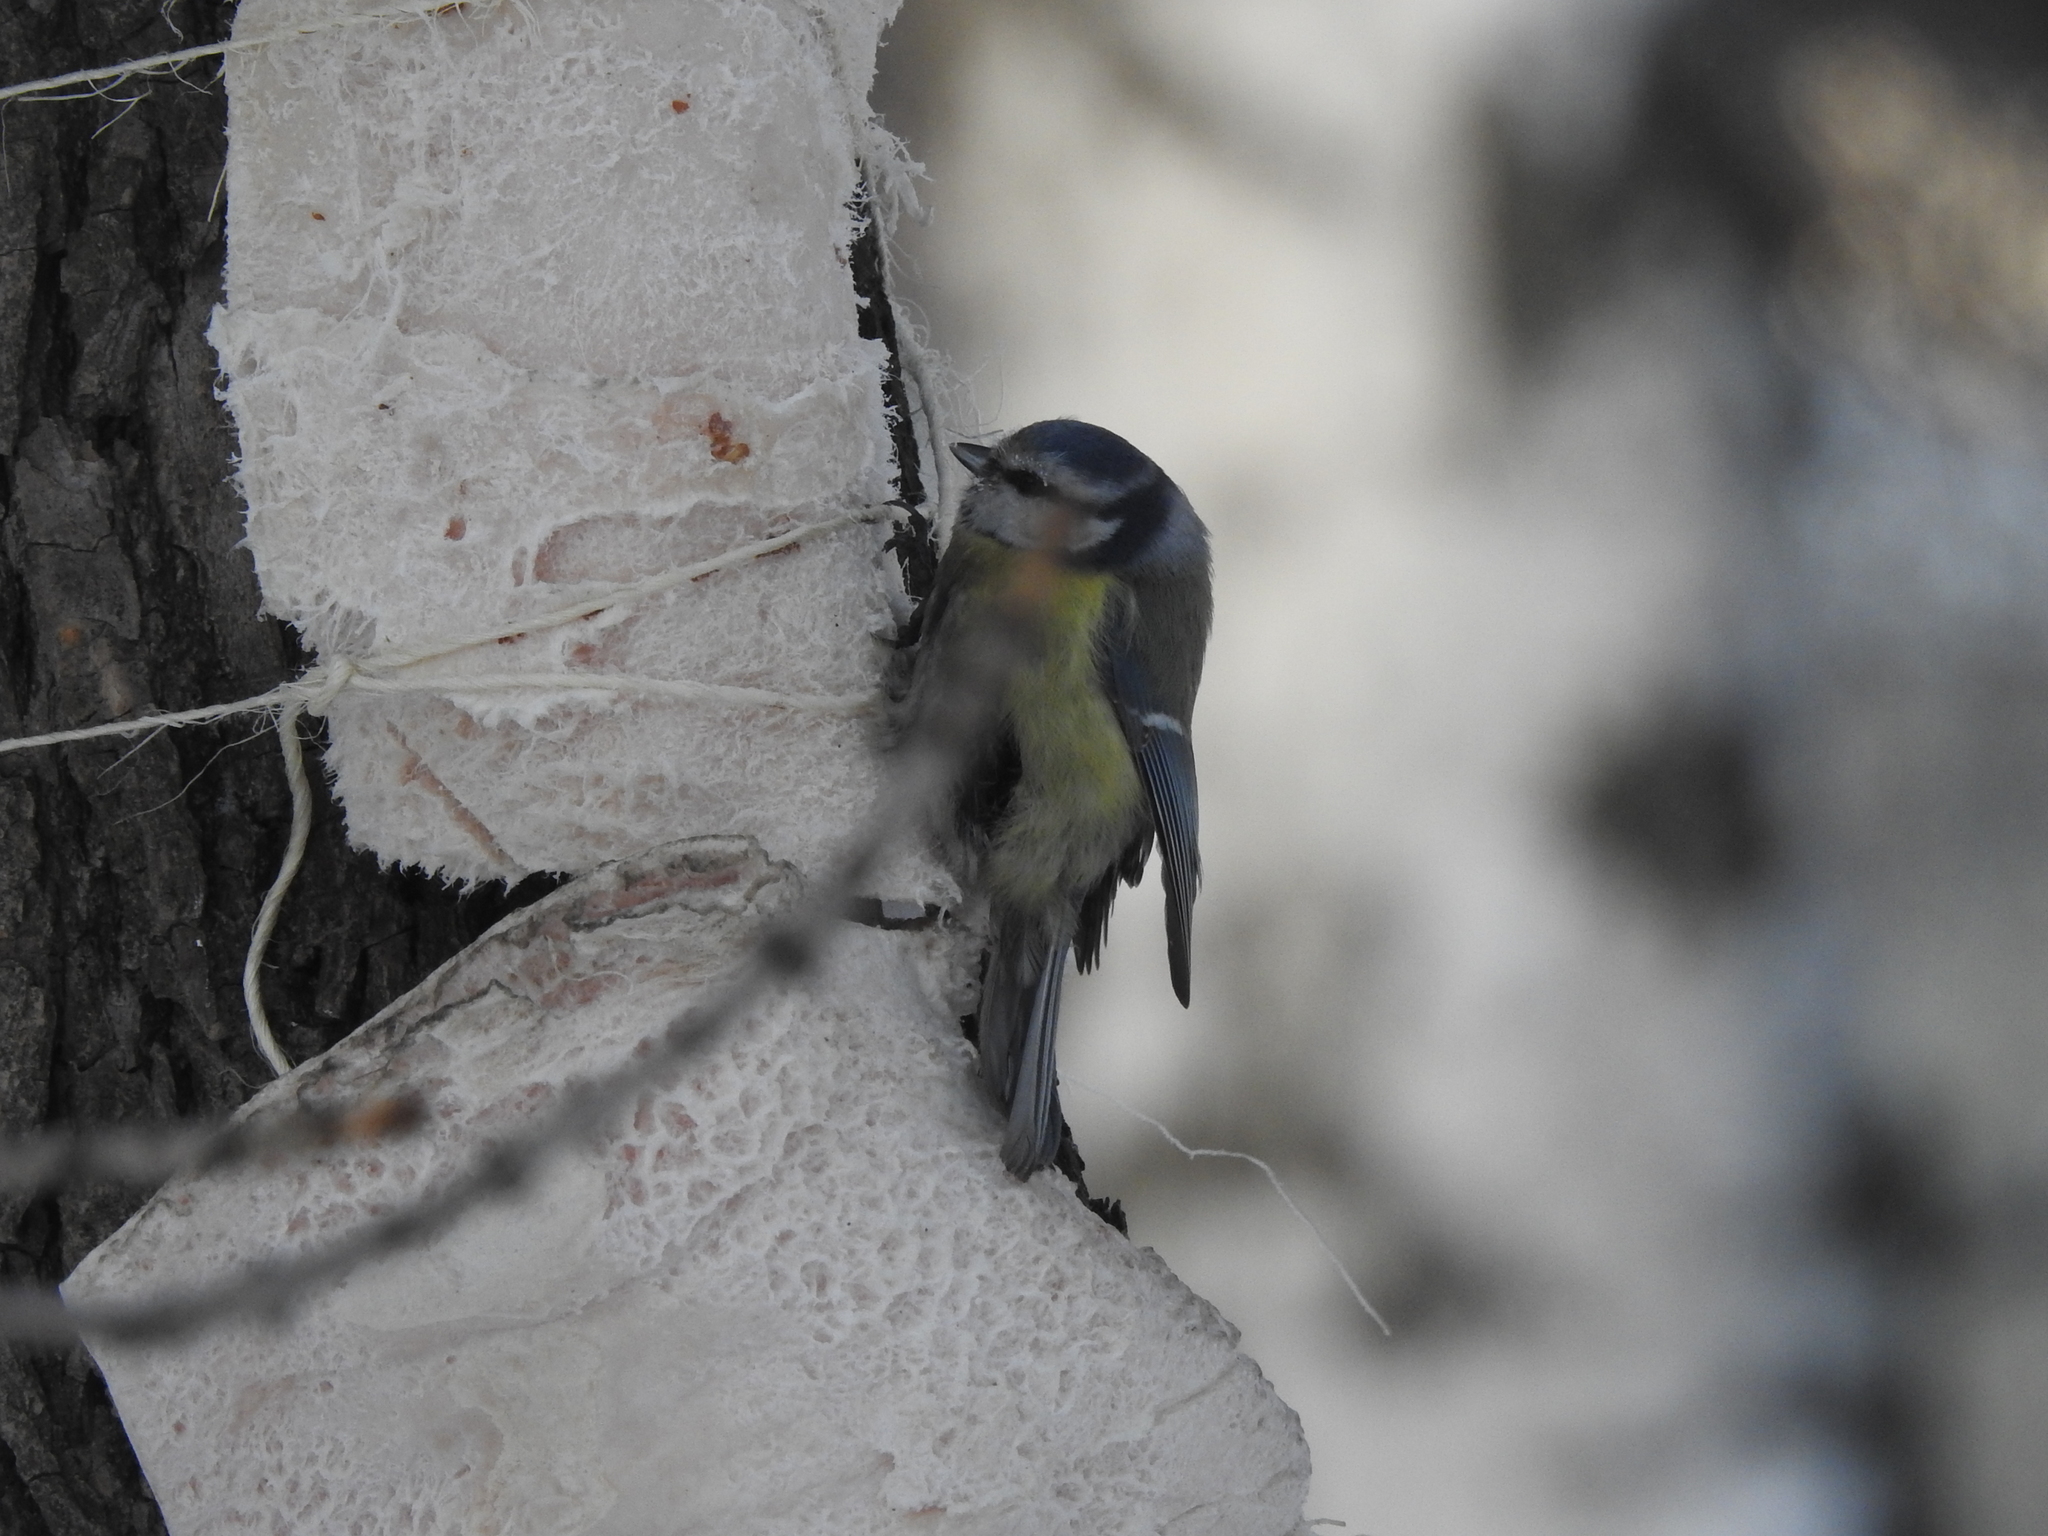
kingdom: Animalia
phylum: Chordata
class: Aves
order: Passeriformes
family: Paridae
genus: Cyanistes
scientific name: Cyanistes caeruleus
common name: Eurasian blue tit
